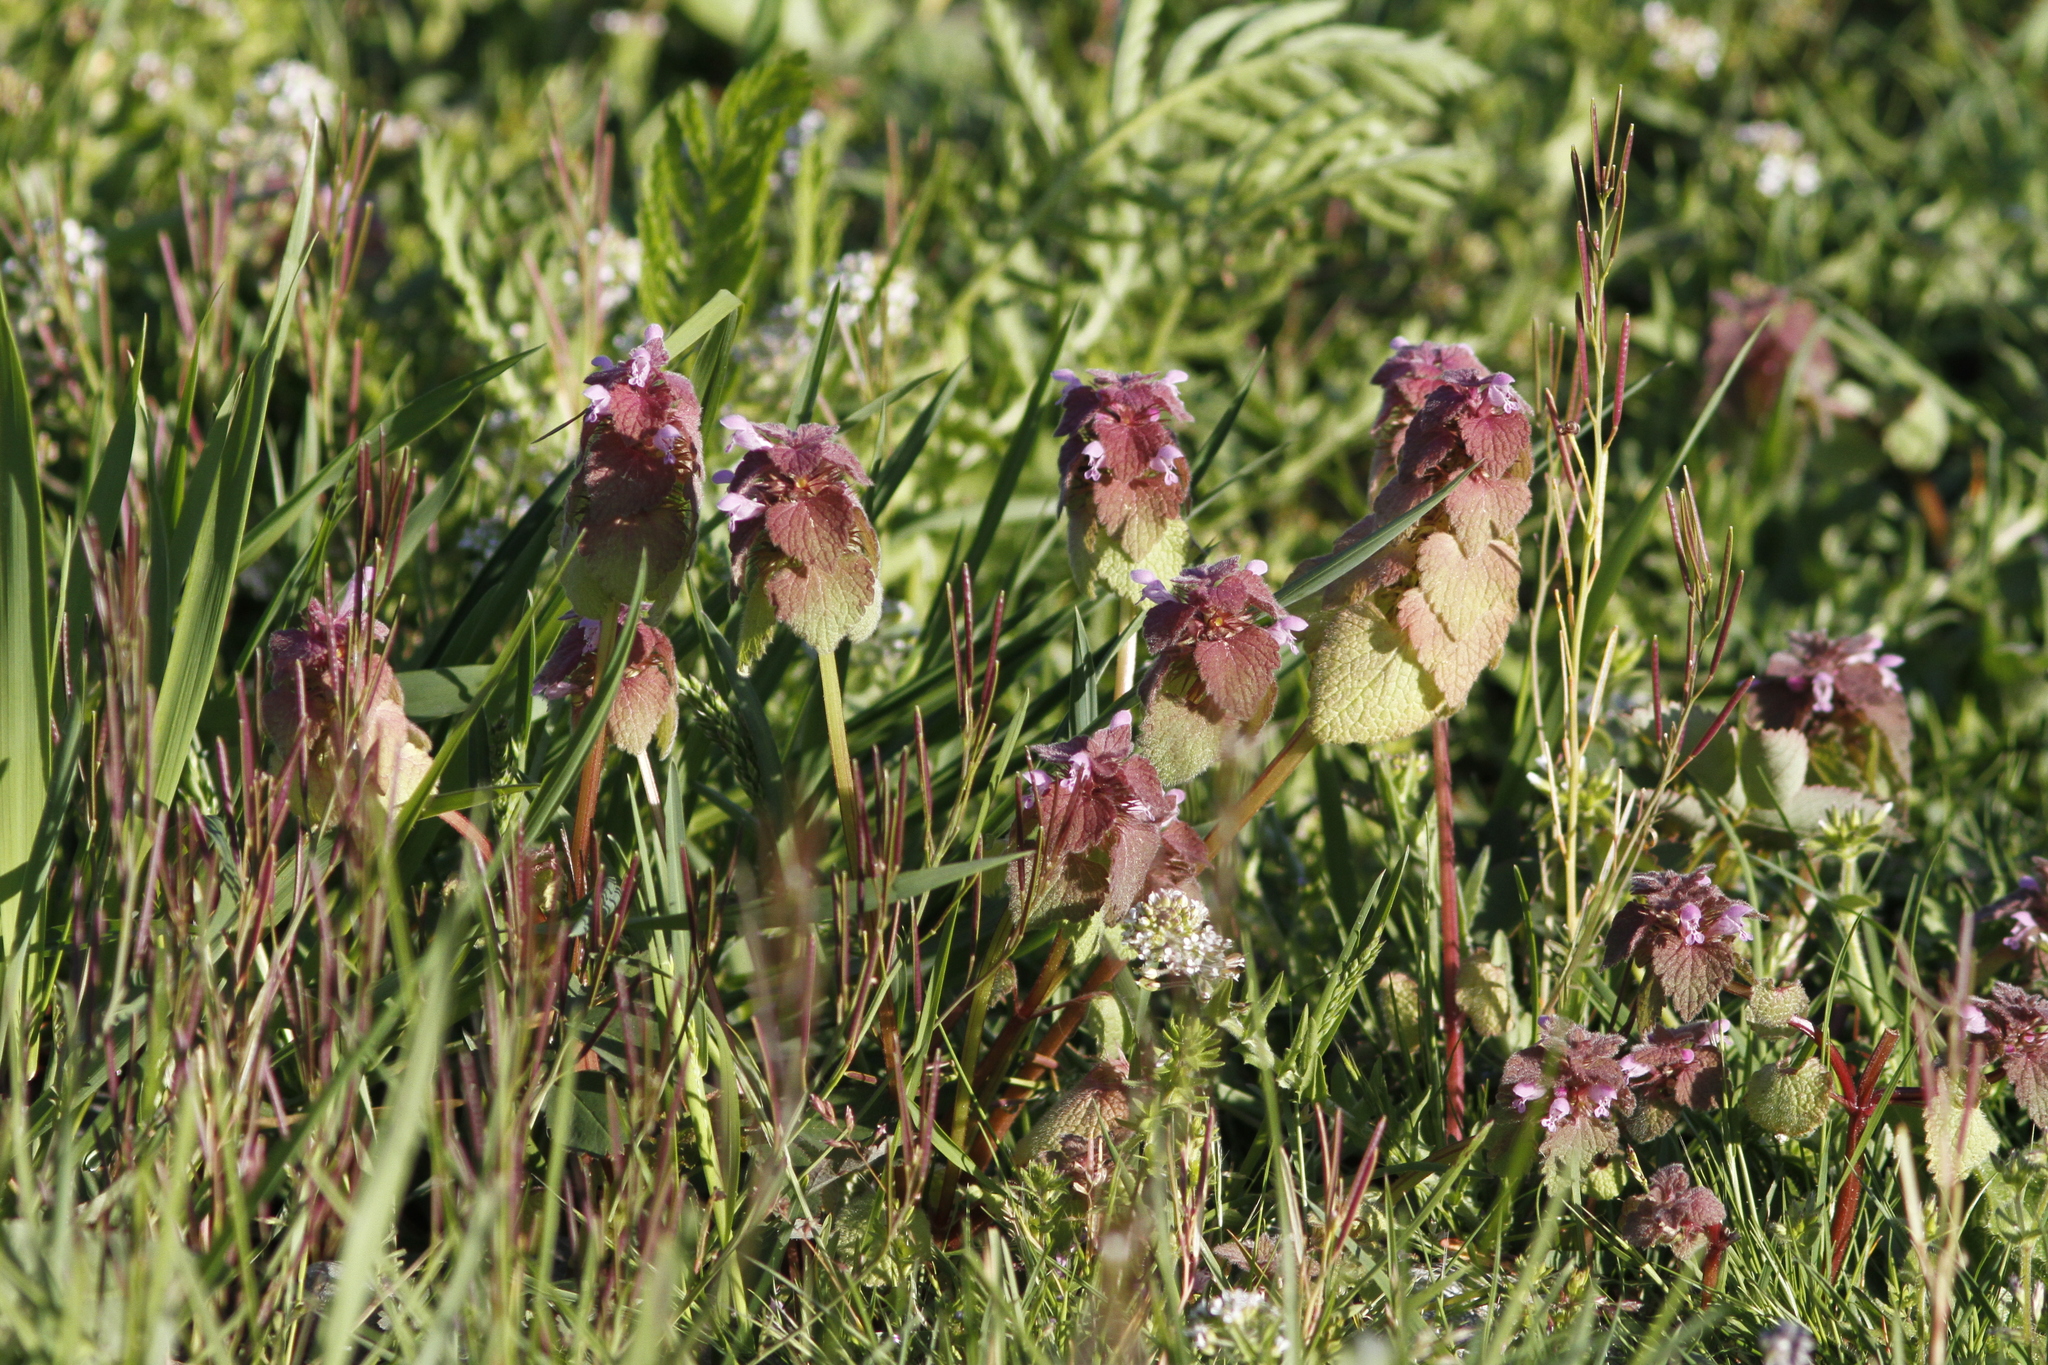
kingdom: Plantae
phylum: Tracheophyta
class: Magnoliopsida
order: Lamiales
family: Lamiaceae
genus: Lamium
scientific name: Lamium purpureum
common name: Red dead-nettle
